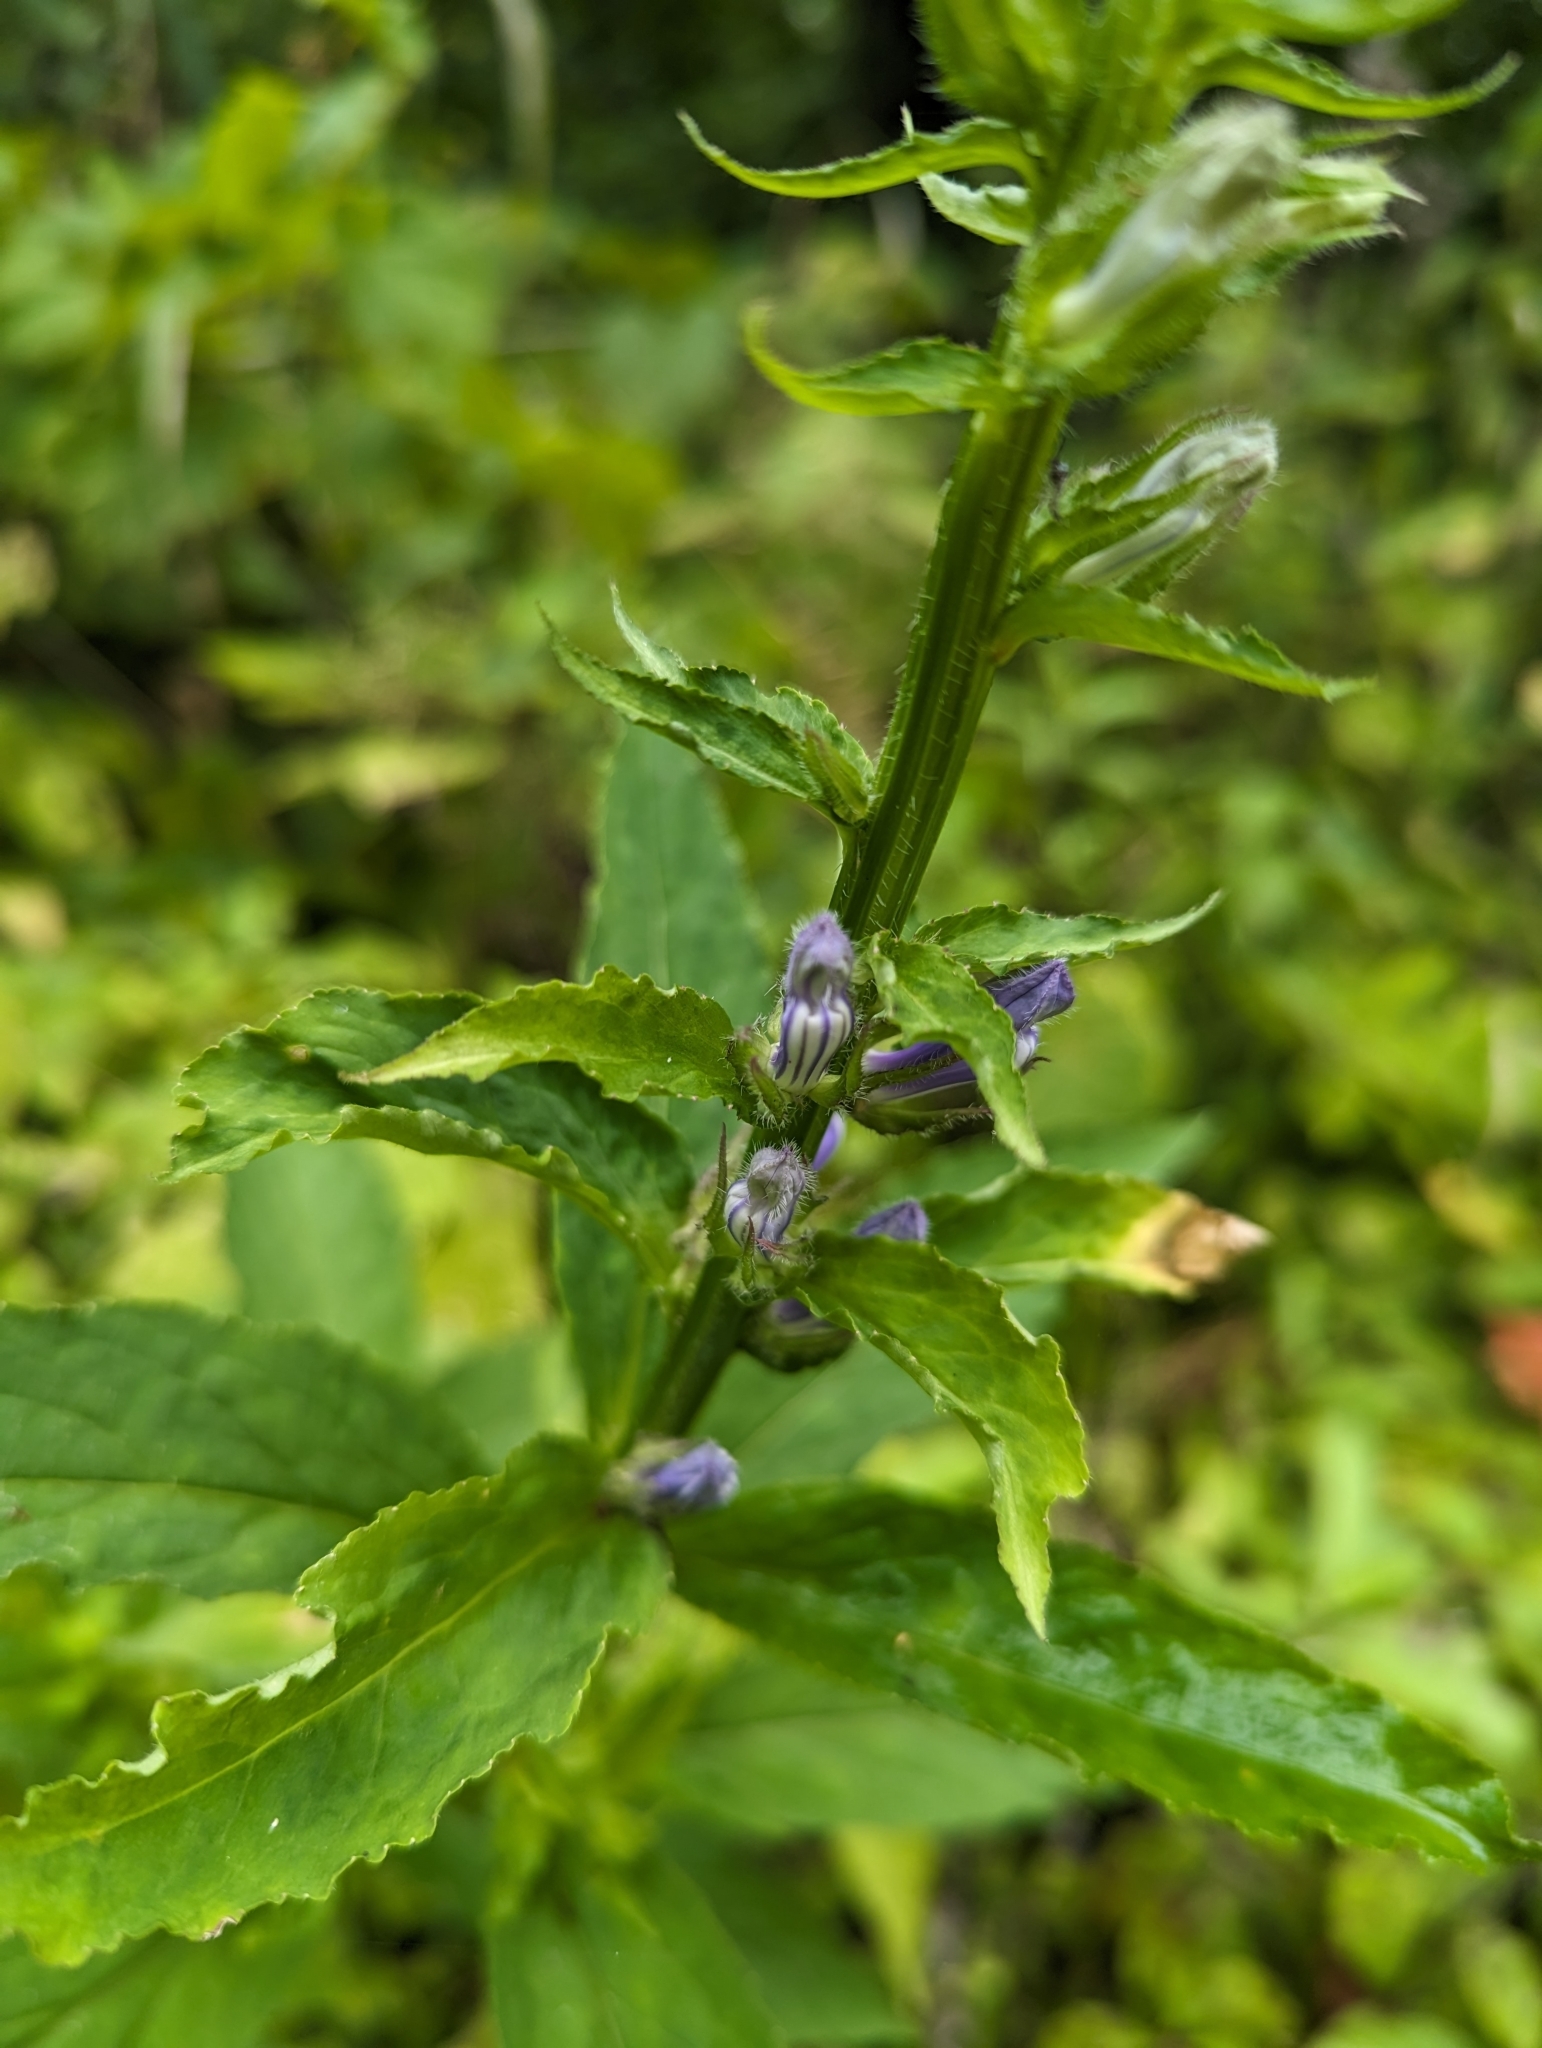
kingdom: Plantae
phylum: Tracheophyta
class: Magnoliopsida
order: Asterales
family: Campanulaceae
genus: Lobelia
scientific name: Lobelia siphilitica
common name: Great lobelia
